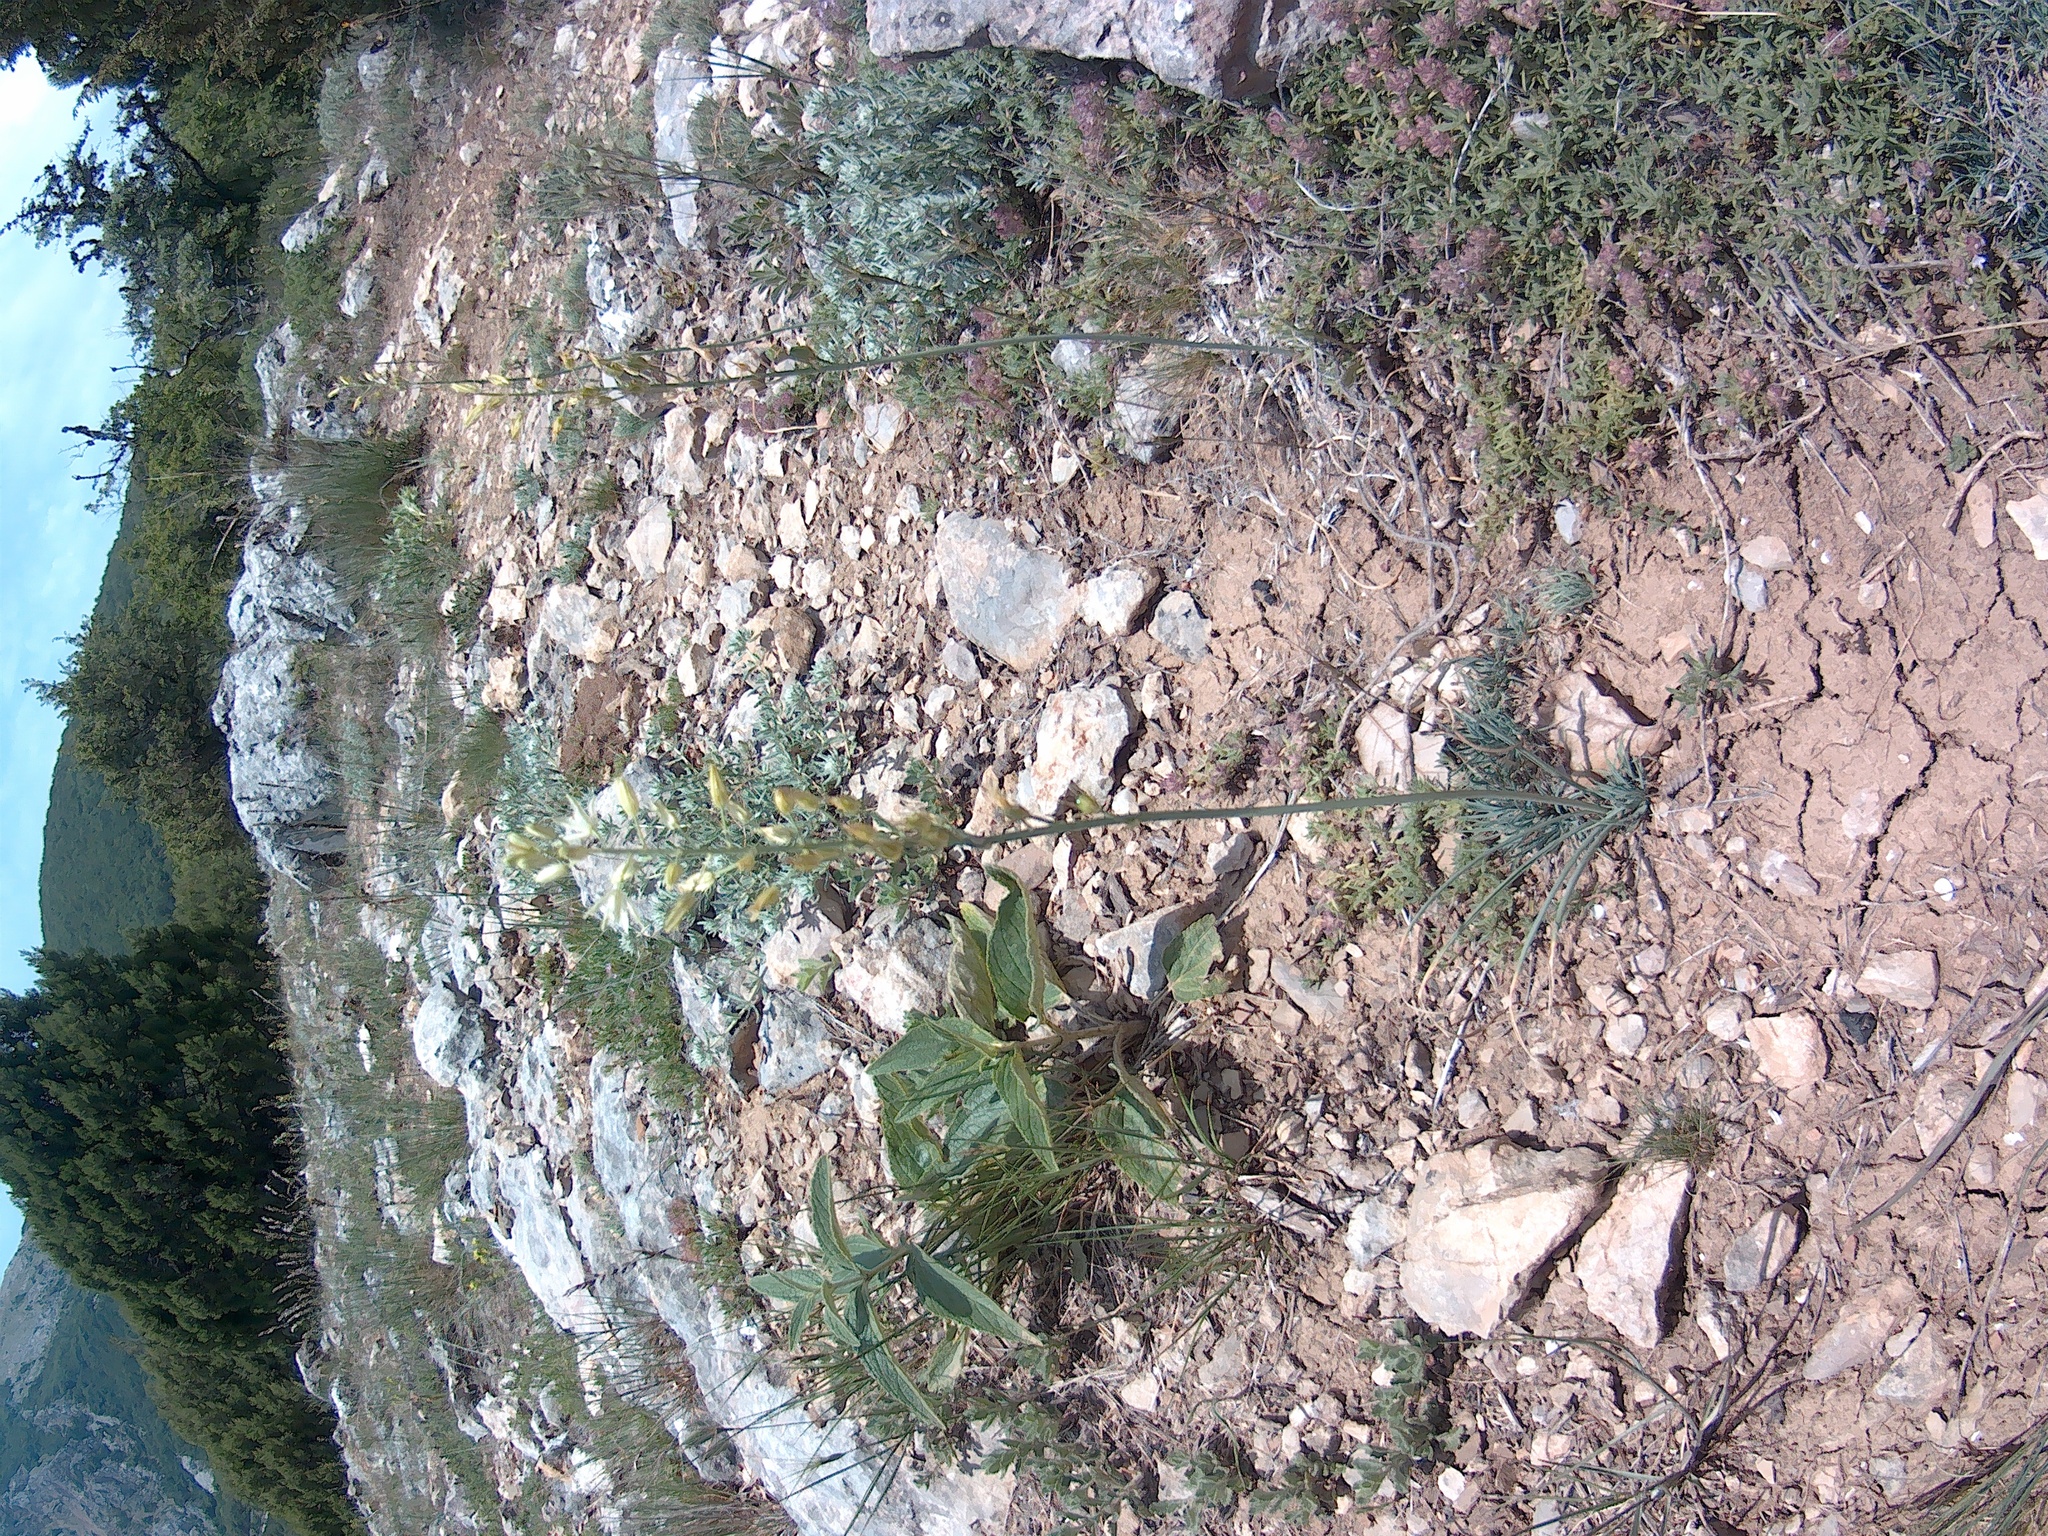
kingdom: Plantae
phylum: Tracheophyta
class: Liliopsida
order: Asparagales
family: Asparagaceae
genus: Ornithogalum
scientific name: Ornithogalum pyrenaicum
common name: Spiked star-of-bethlehem
